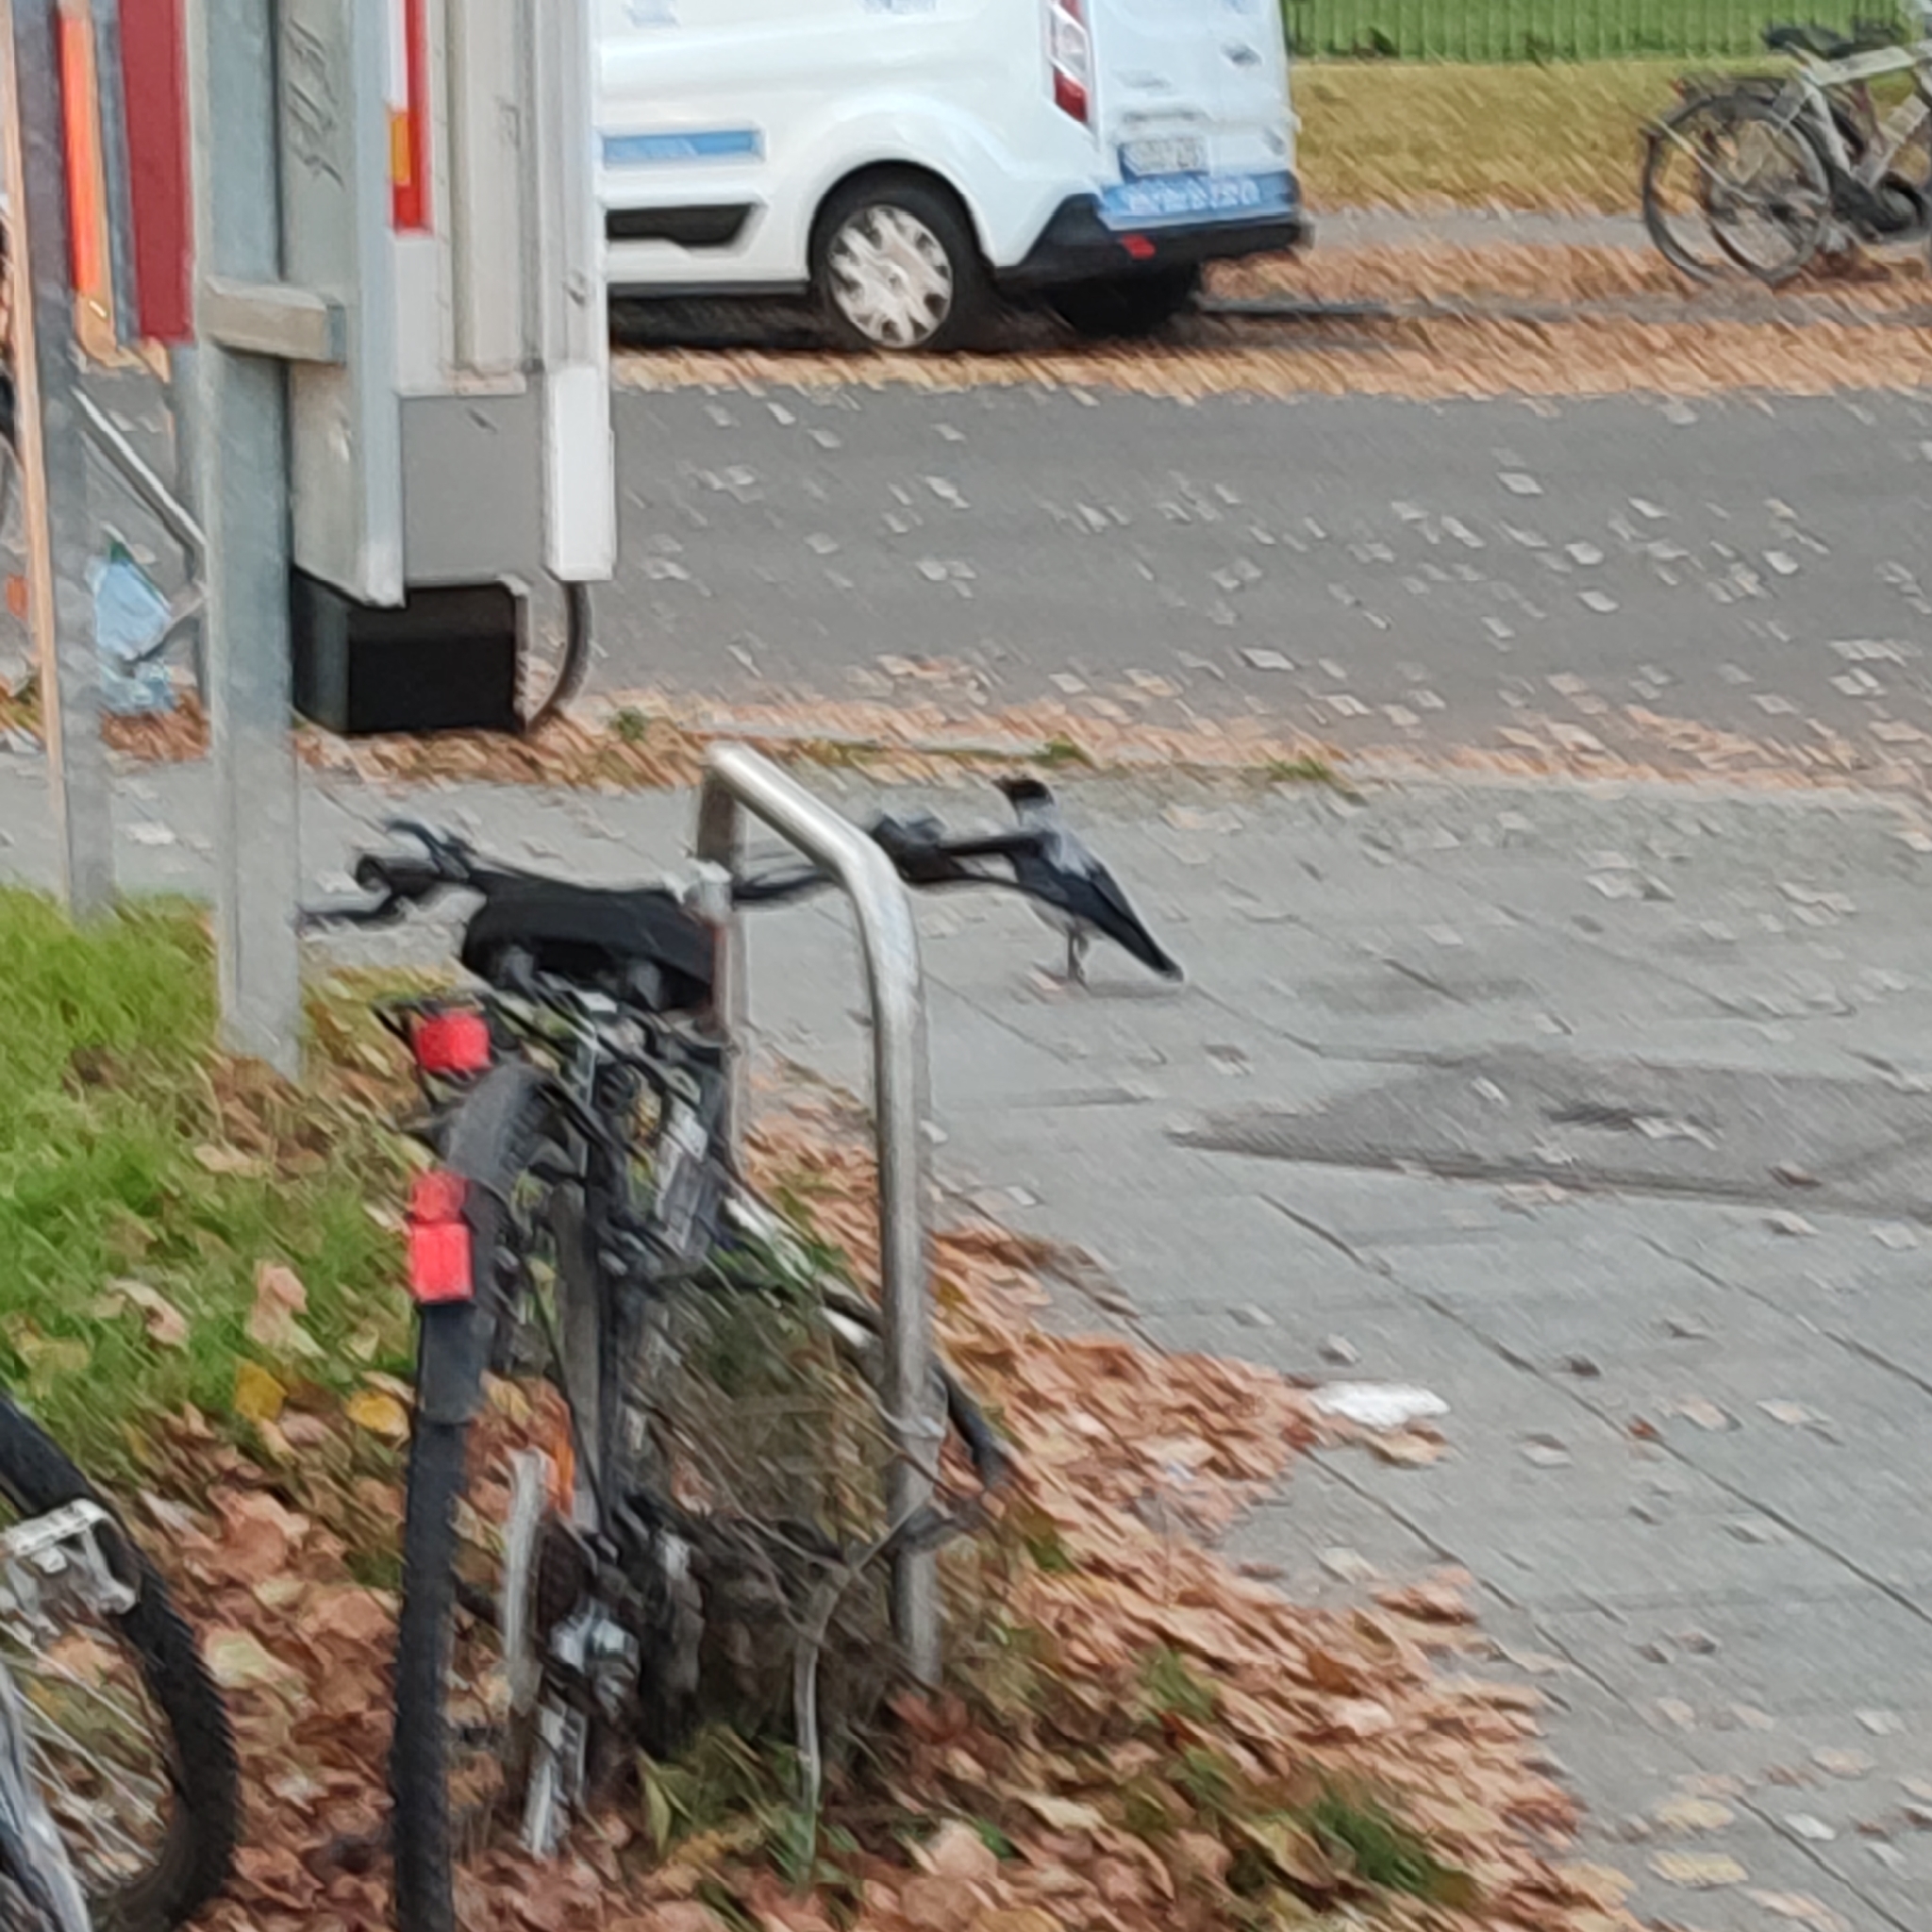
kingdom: Animalia
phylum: Chordata
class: Aves
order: Passeriformes
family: Corvidae
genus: Corvus
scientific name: Corvus cornix
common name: Hooded crow
